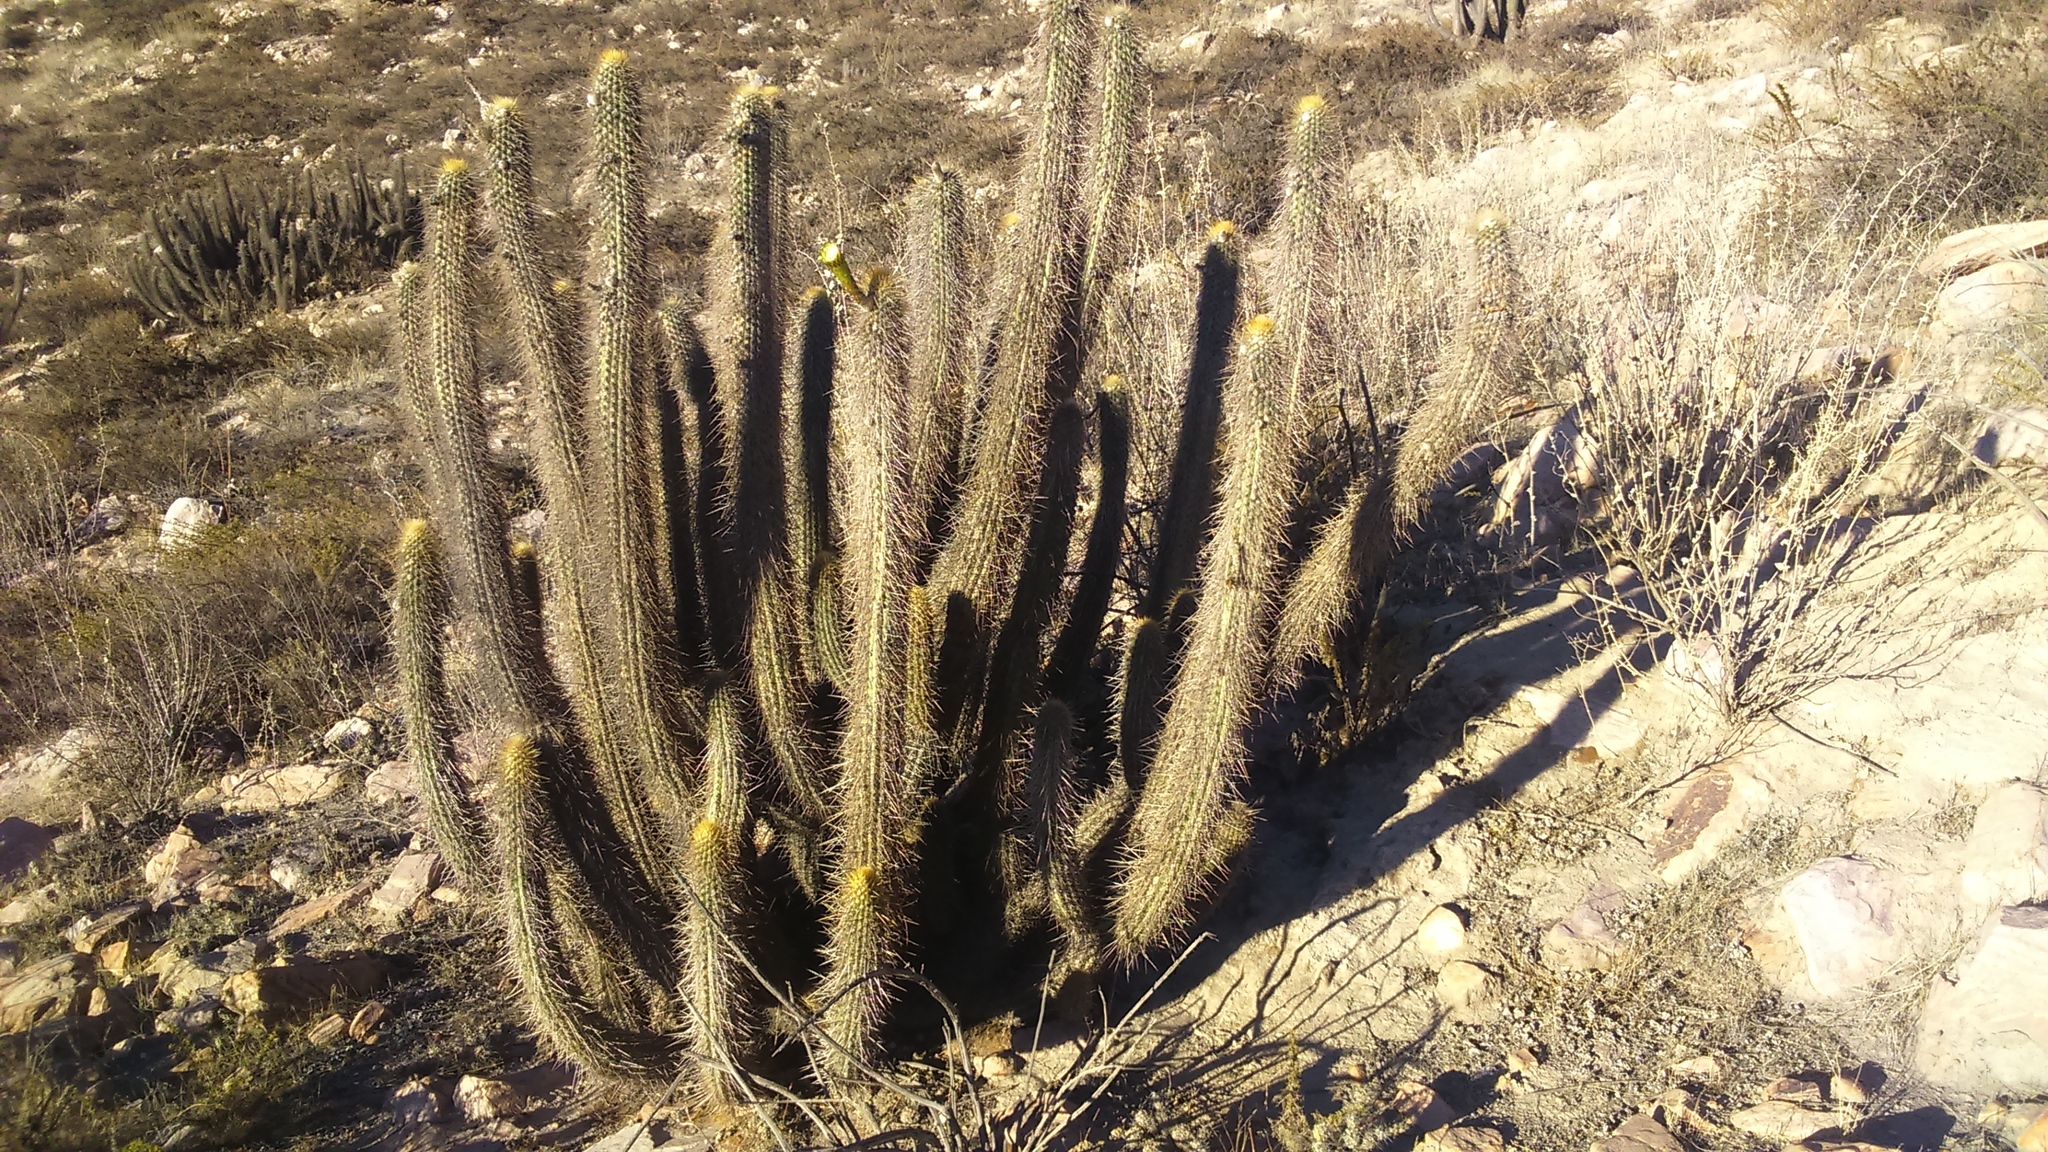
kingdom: Plantae
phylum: Tracheophyta
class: Magnoliopsida
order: Caryophyllales
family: Cactaceae
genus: Weberbauerocereus
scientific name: Weberbauerocereus weberbaueri
